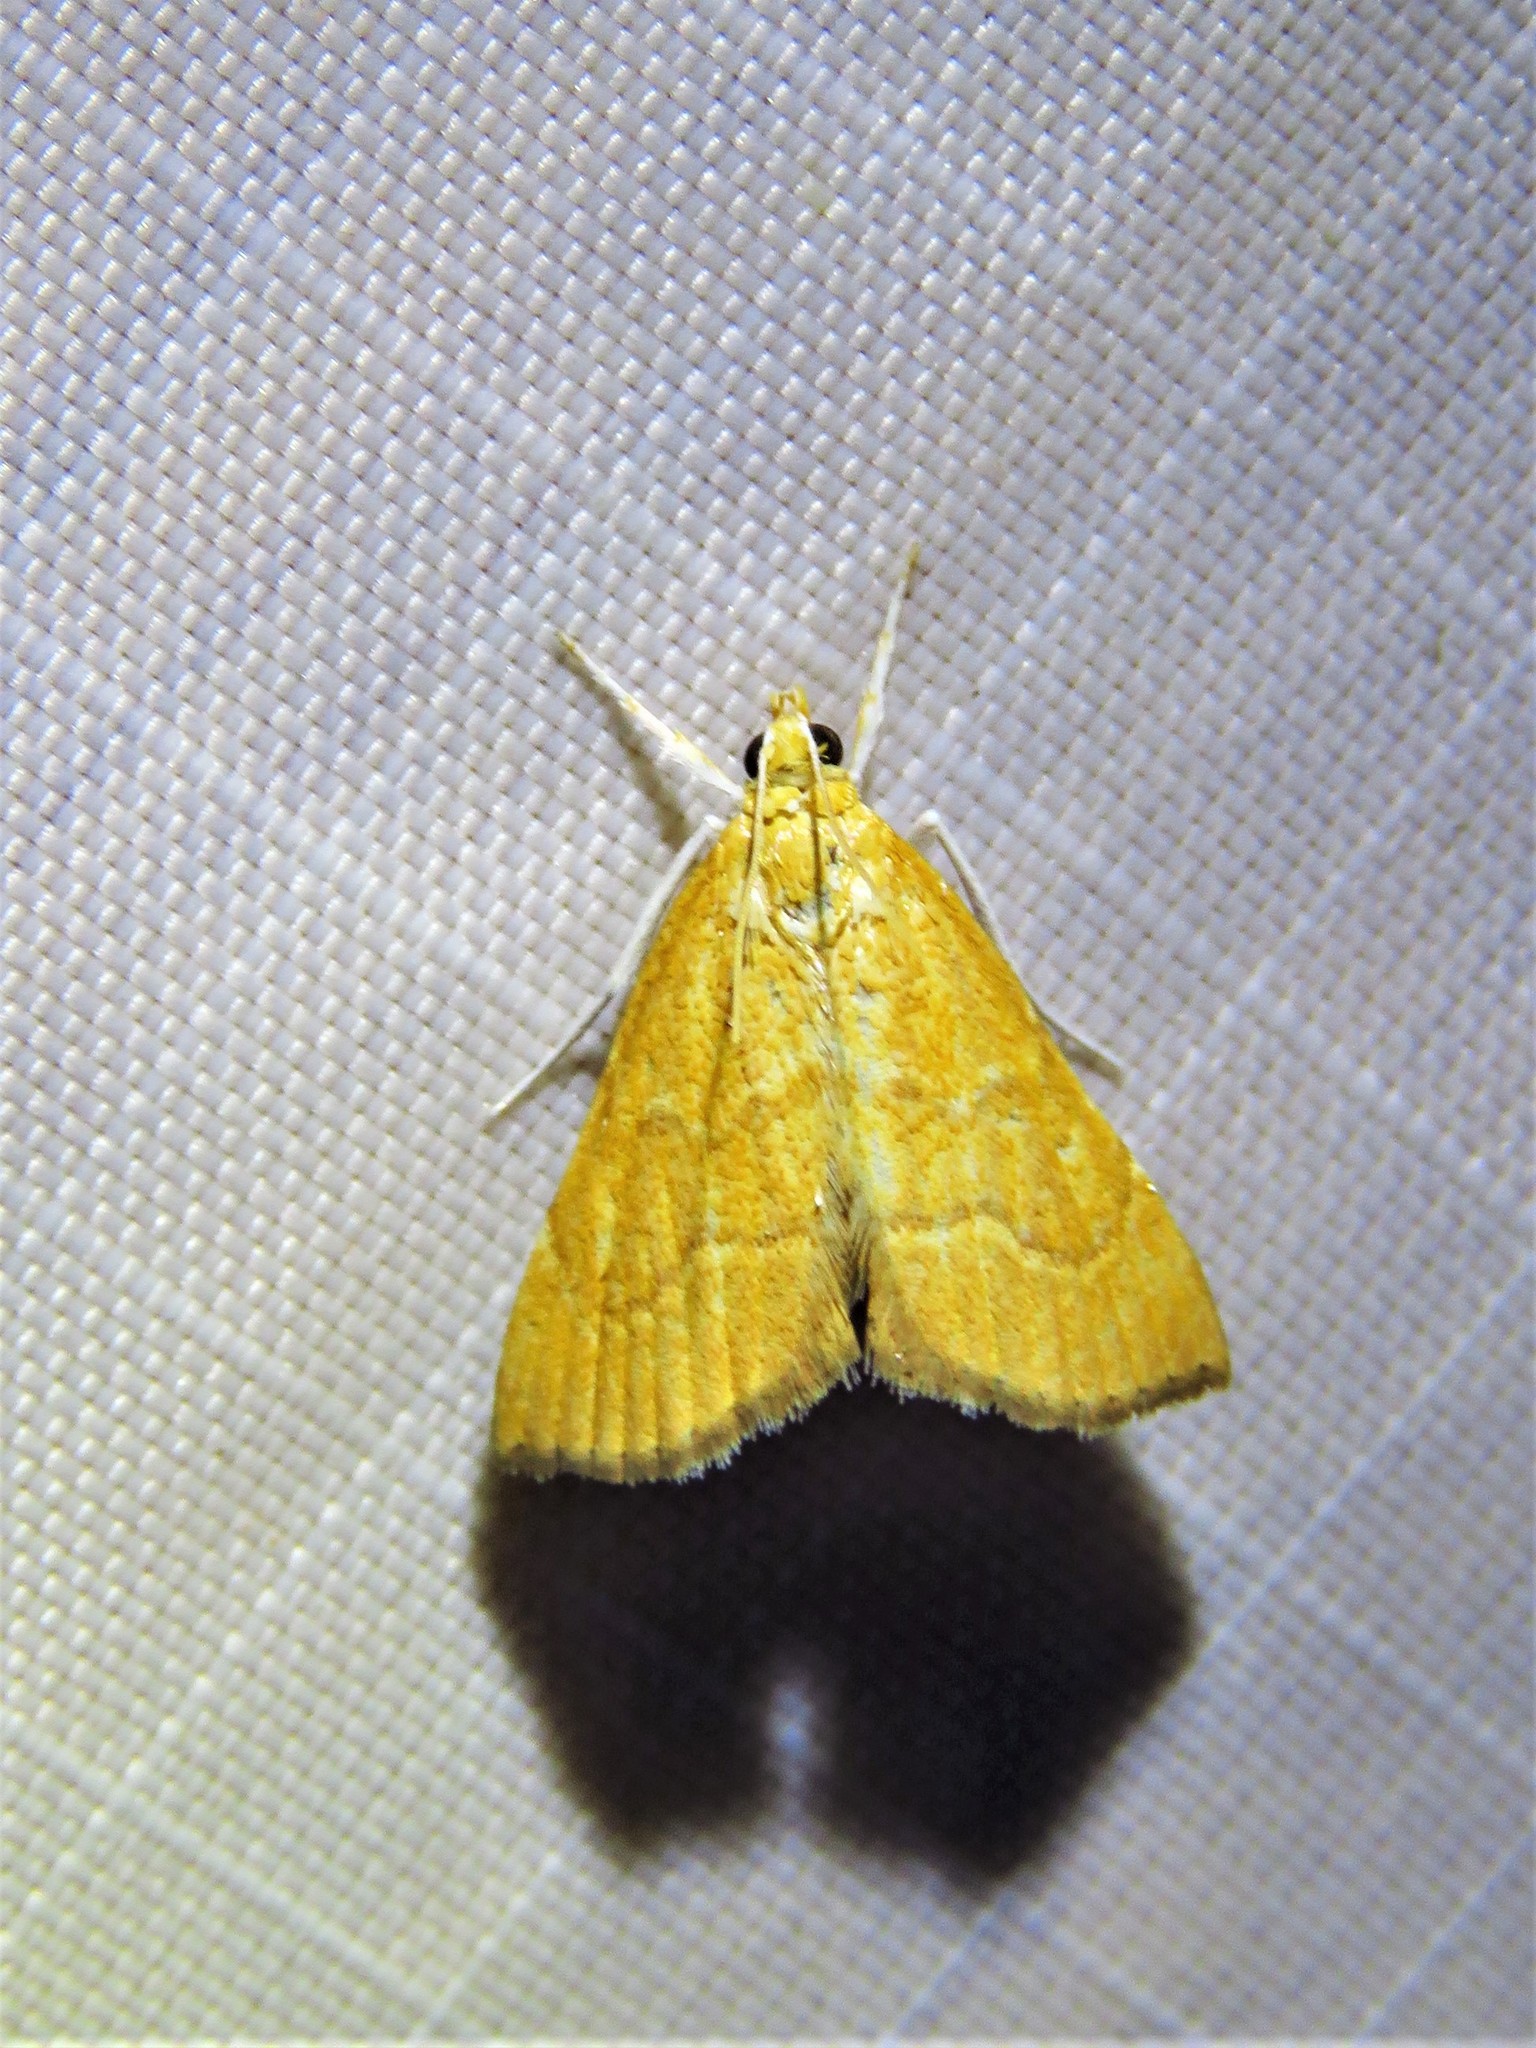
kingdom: Animalia
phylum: Arthropoda
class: Insecta
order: Lepidoptera
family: Crambidae
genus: Glaphyria
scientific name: Glaphyria invisalis
